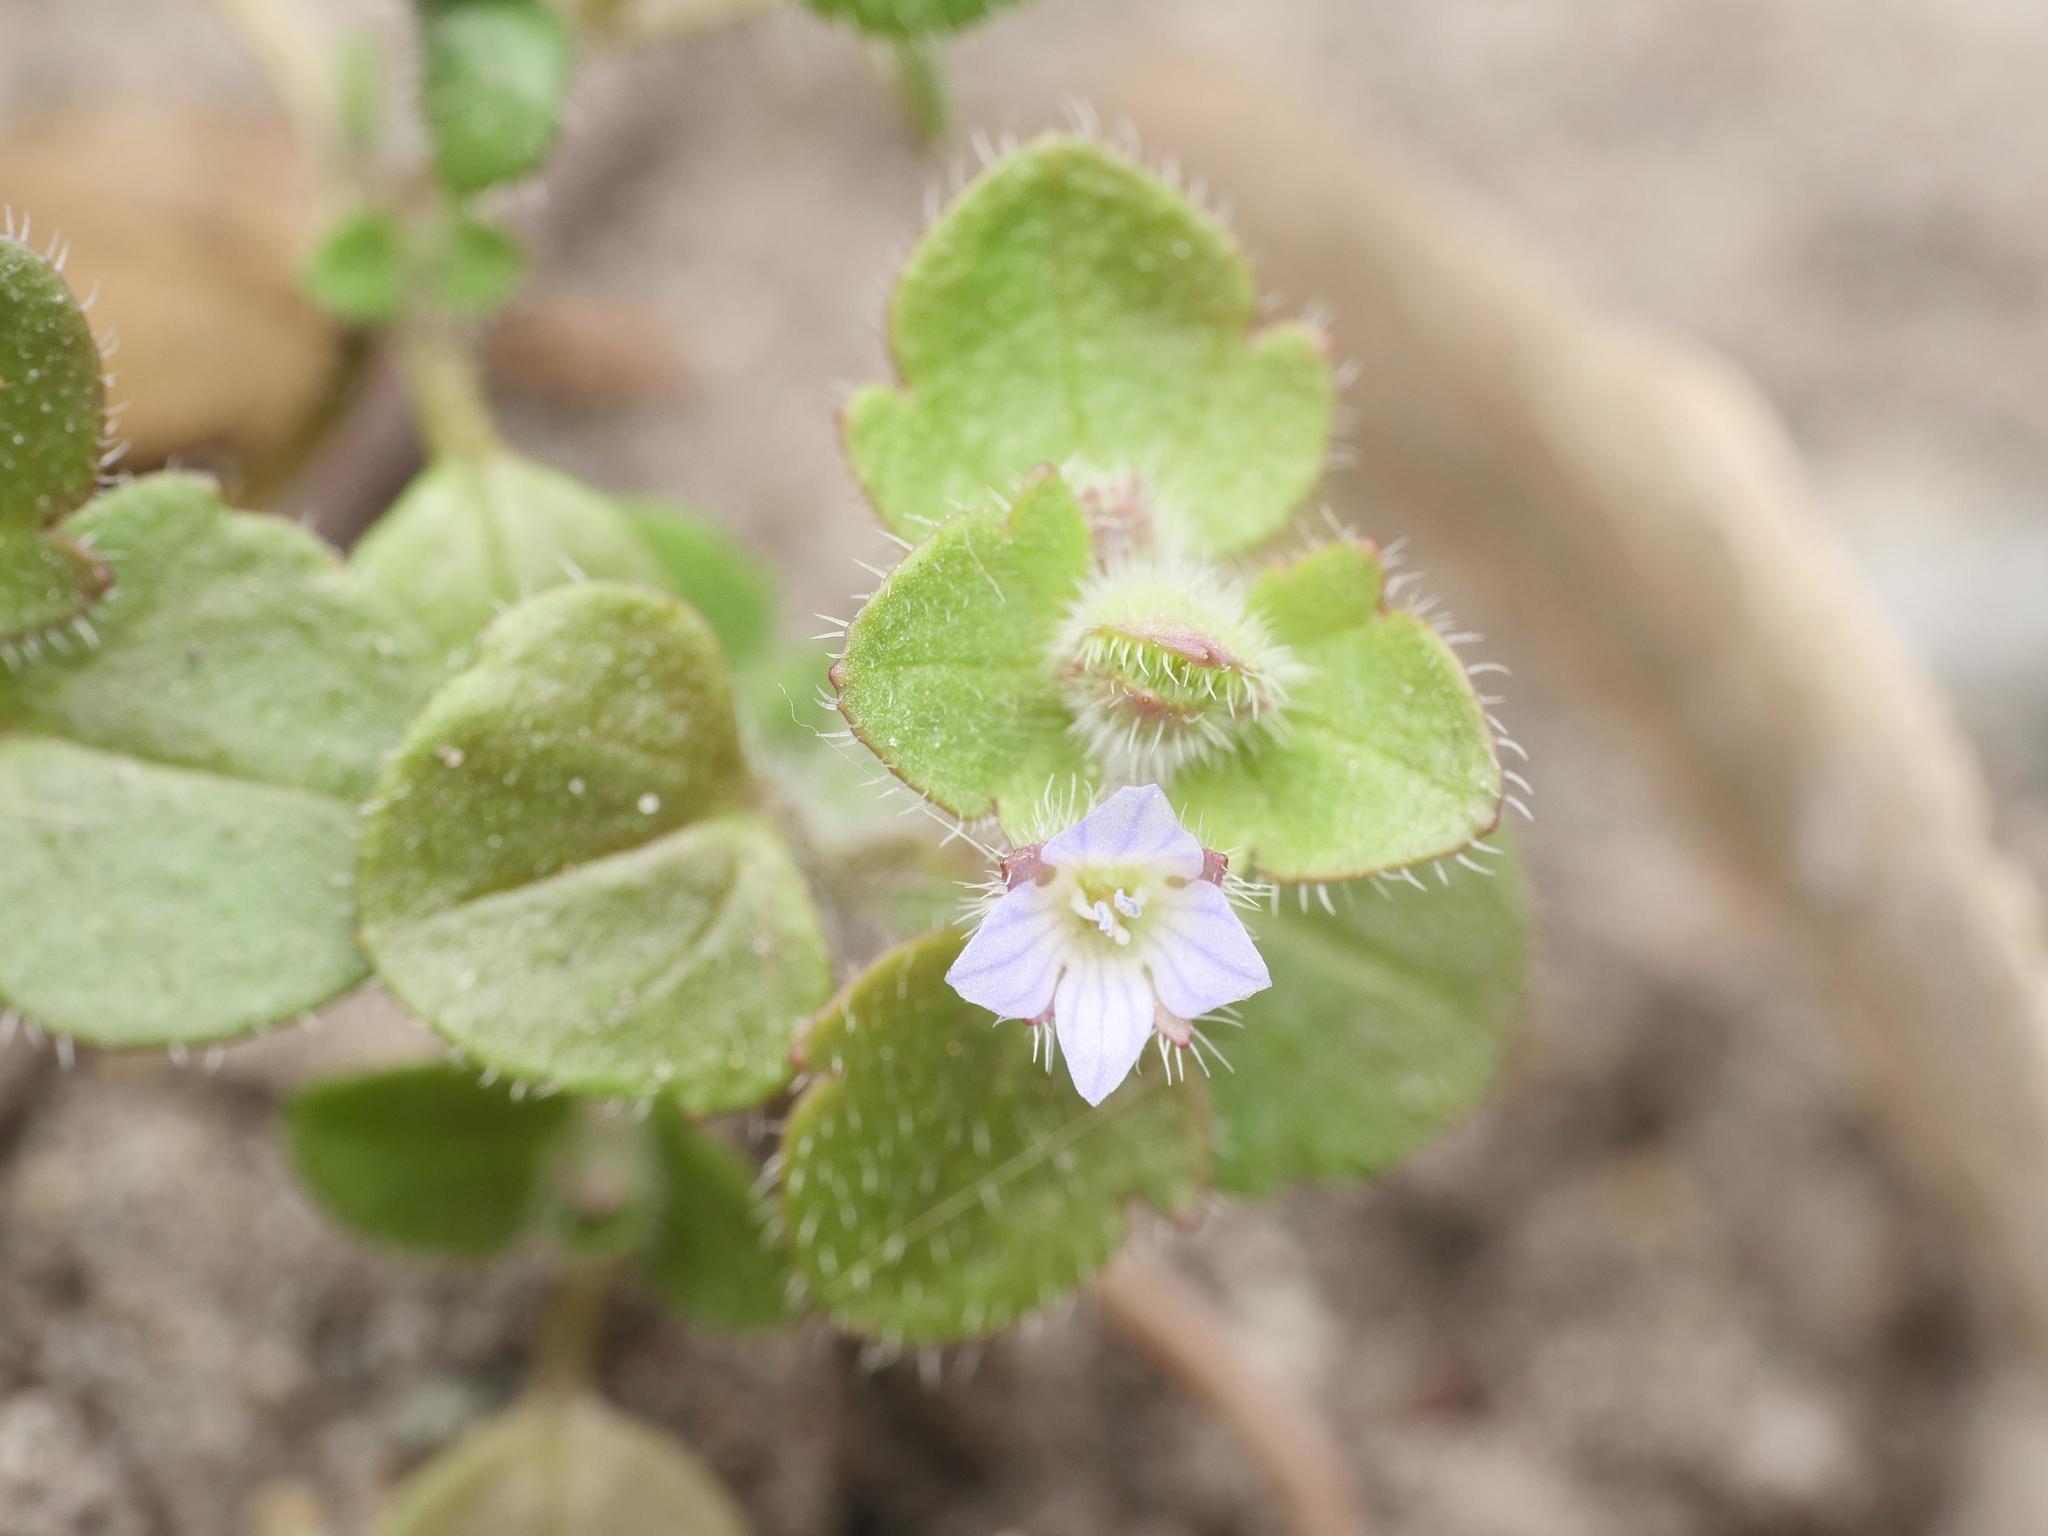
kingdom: Plantae
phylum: Tracheophyta
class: Magnoliopsida
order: Lamiales
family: Plantaginaceae
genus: Veronica
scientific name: Veronica sublobata
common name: False ivy-leaved speedwell
